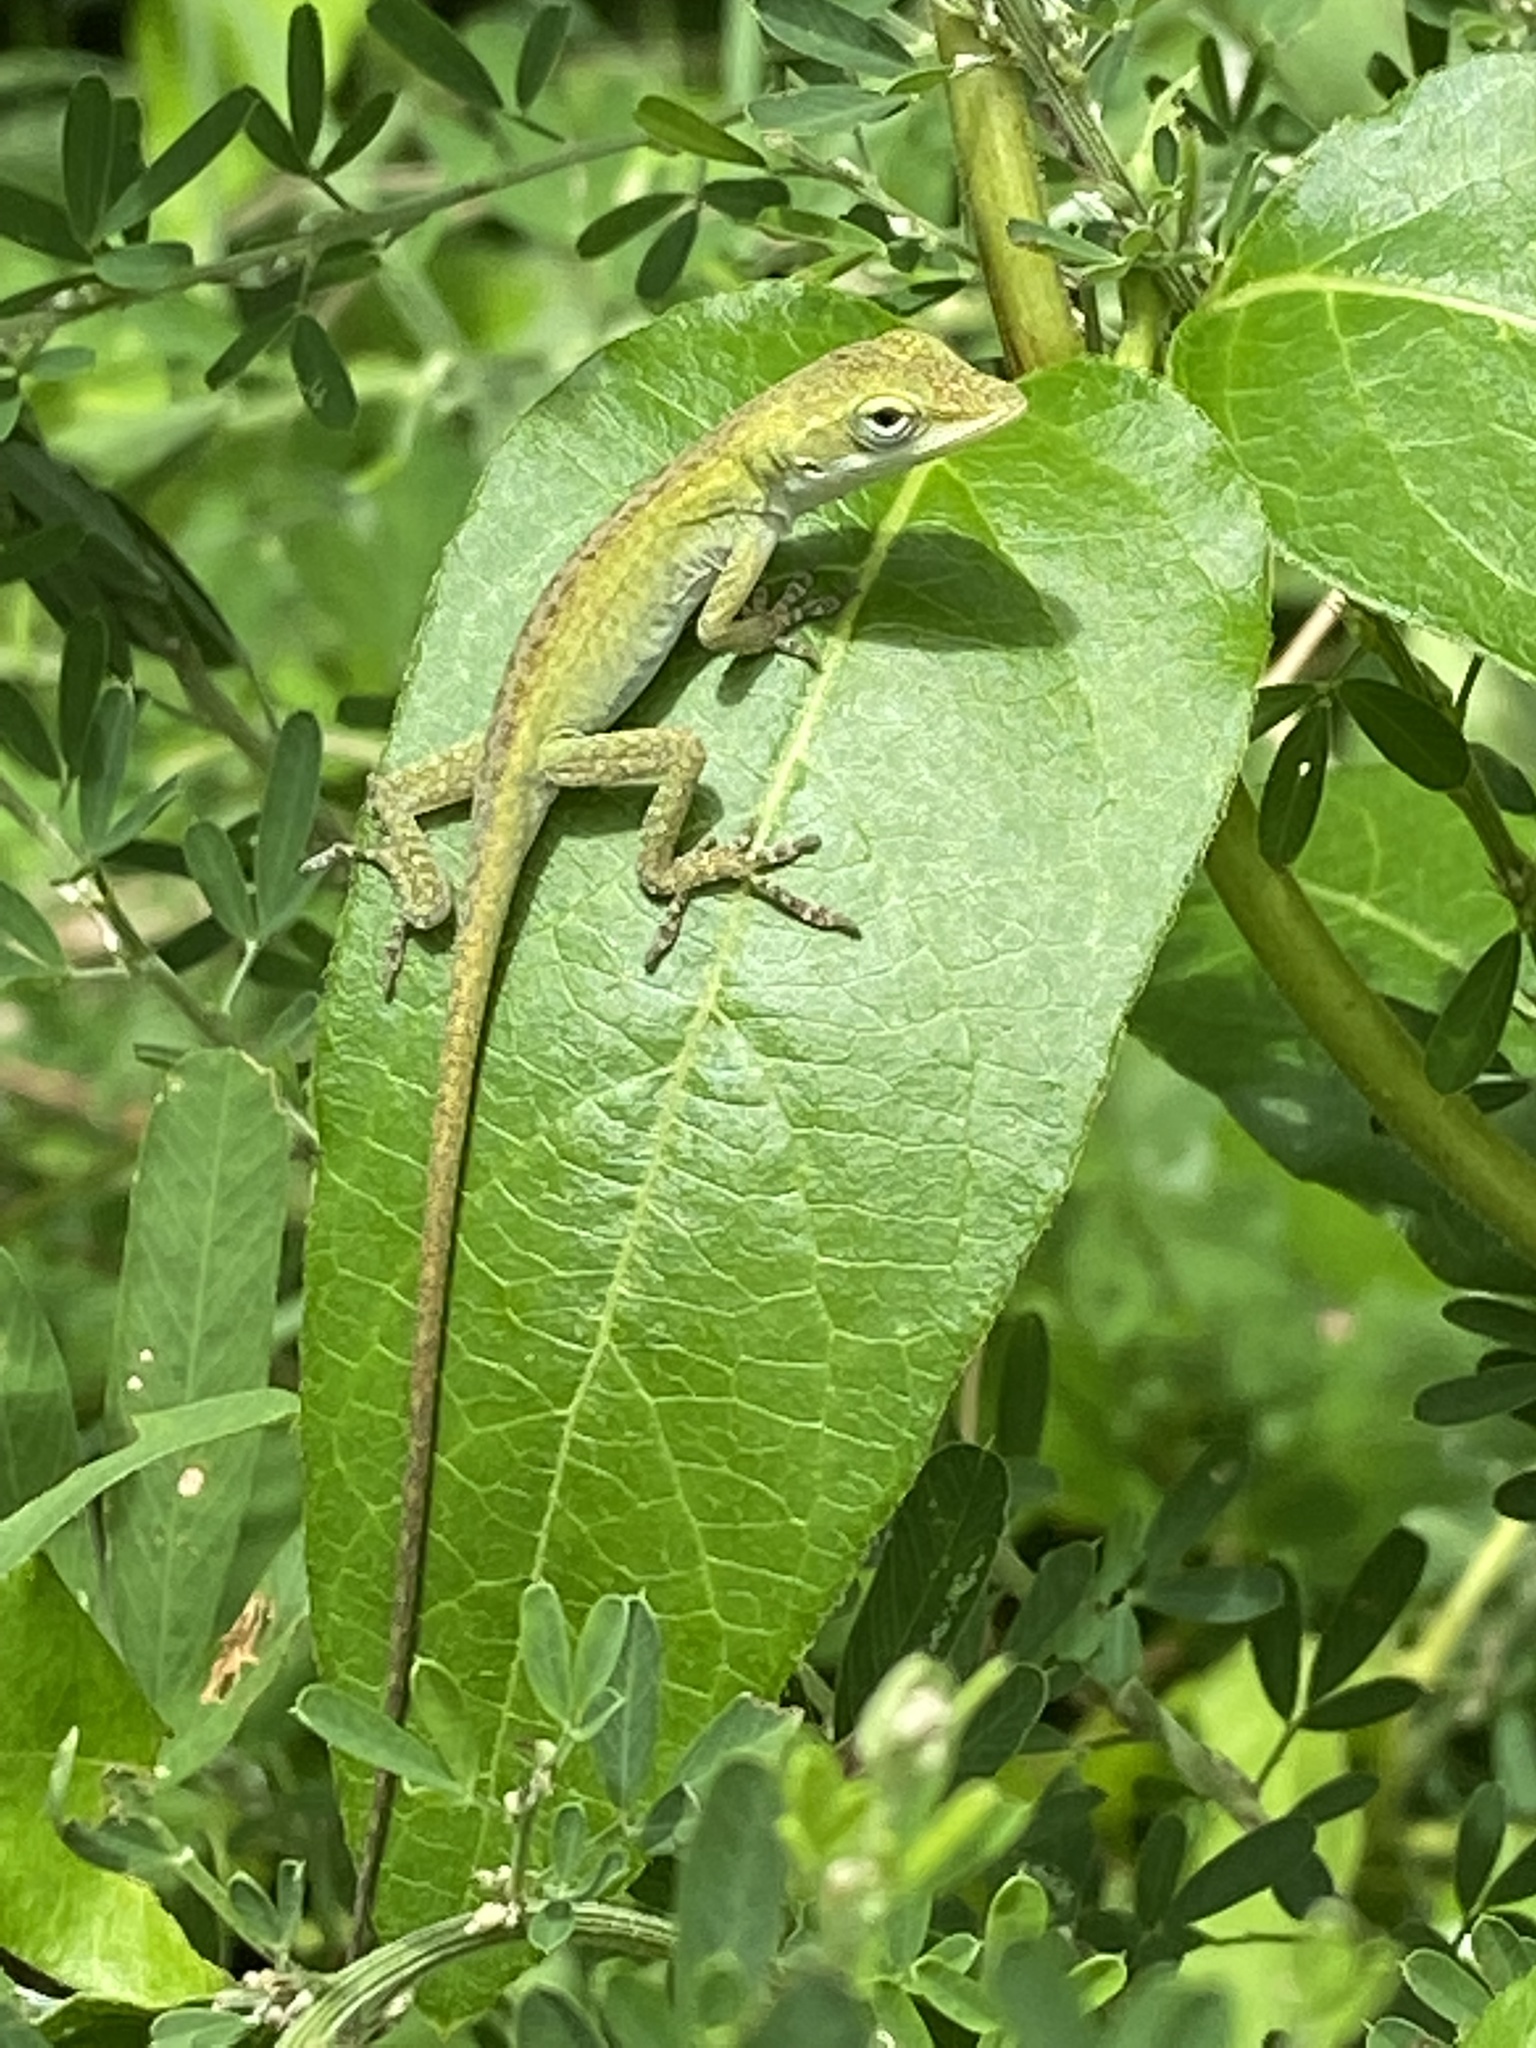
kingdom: Animalia
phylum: Chordata
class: Squamata
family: Dactyloidae
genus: Anolis
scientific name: Anolis carolinensis
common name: Green anole
